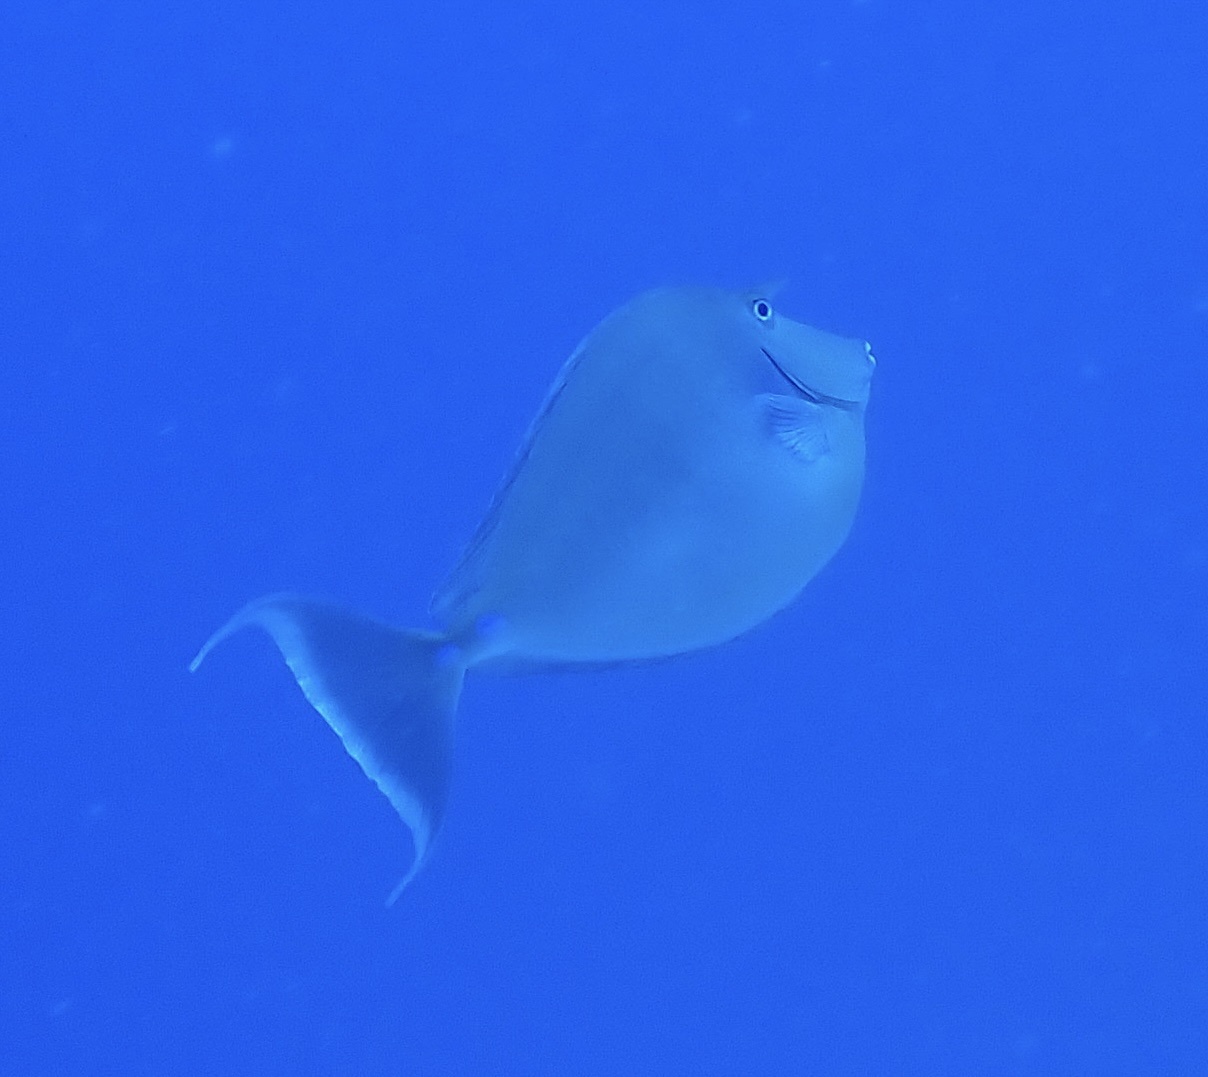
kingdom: Animalia
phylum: Chordata
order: Perciformes
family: Acanthuridae
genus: Naso
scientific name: Naso unicornis
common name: Bluespine unicornfish
